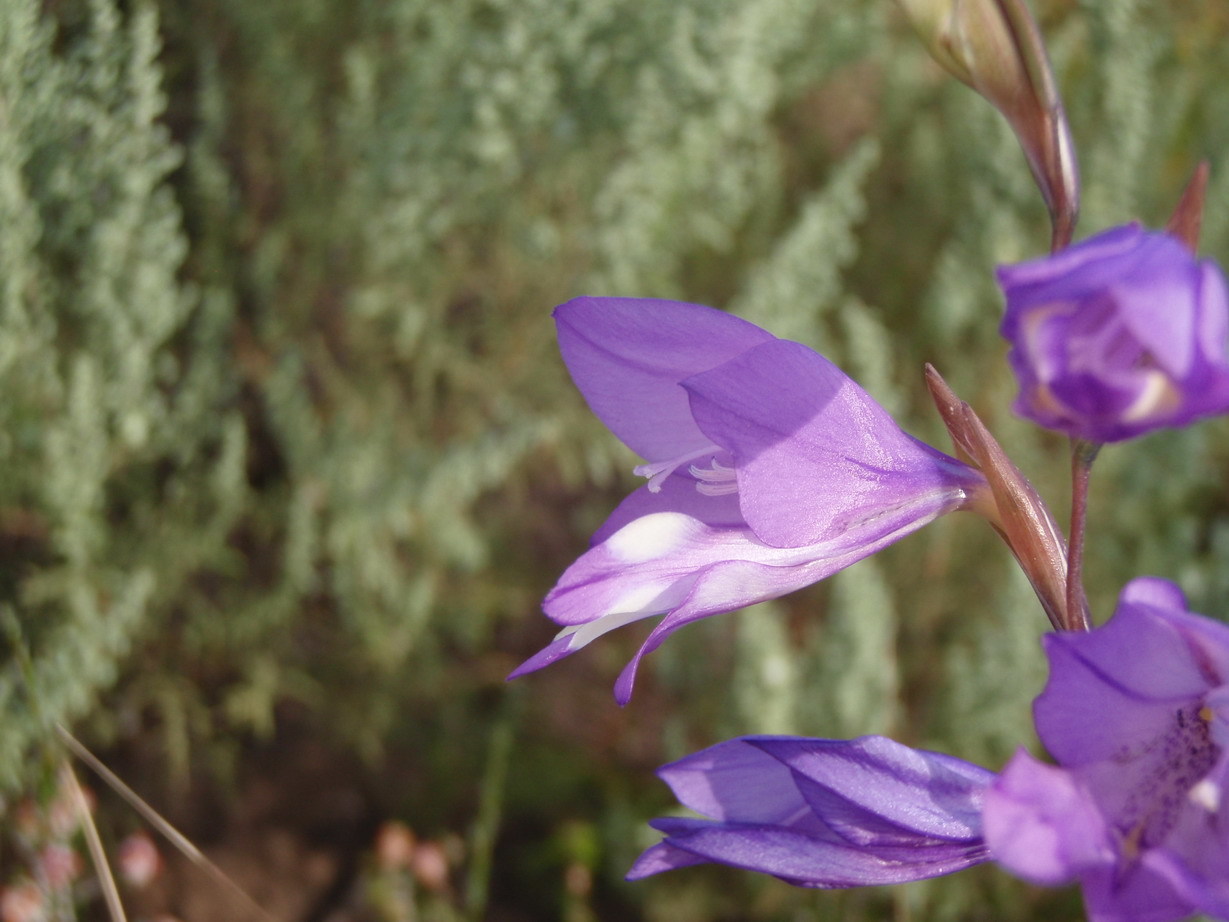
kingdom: Plantae
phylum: Tracheophyta
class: Liliopsida
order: Asparagales
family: Iridaceae
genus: Gladiolus
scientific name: Gladiolus rogersii
